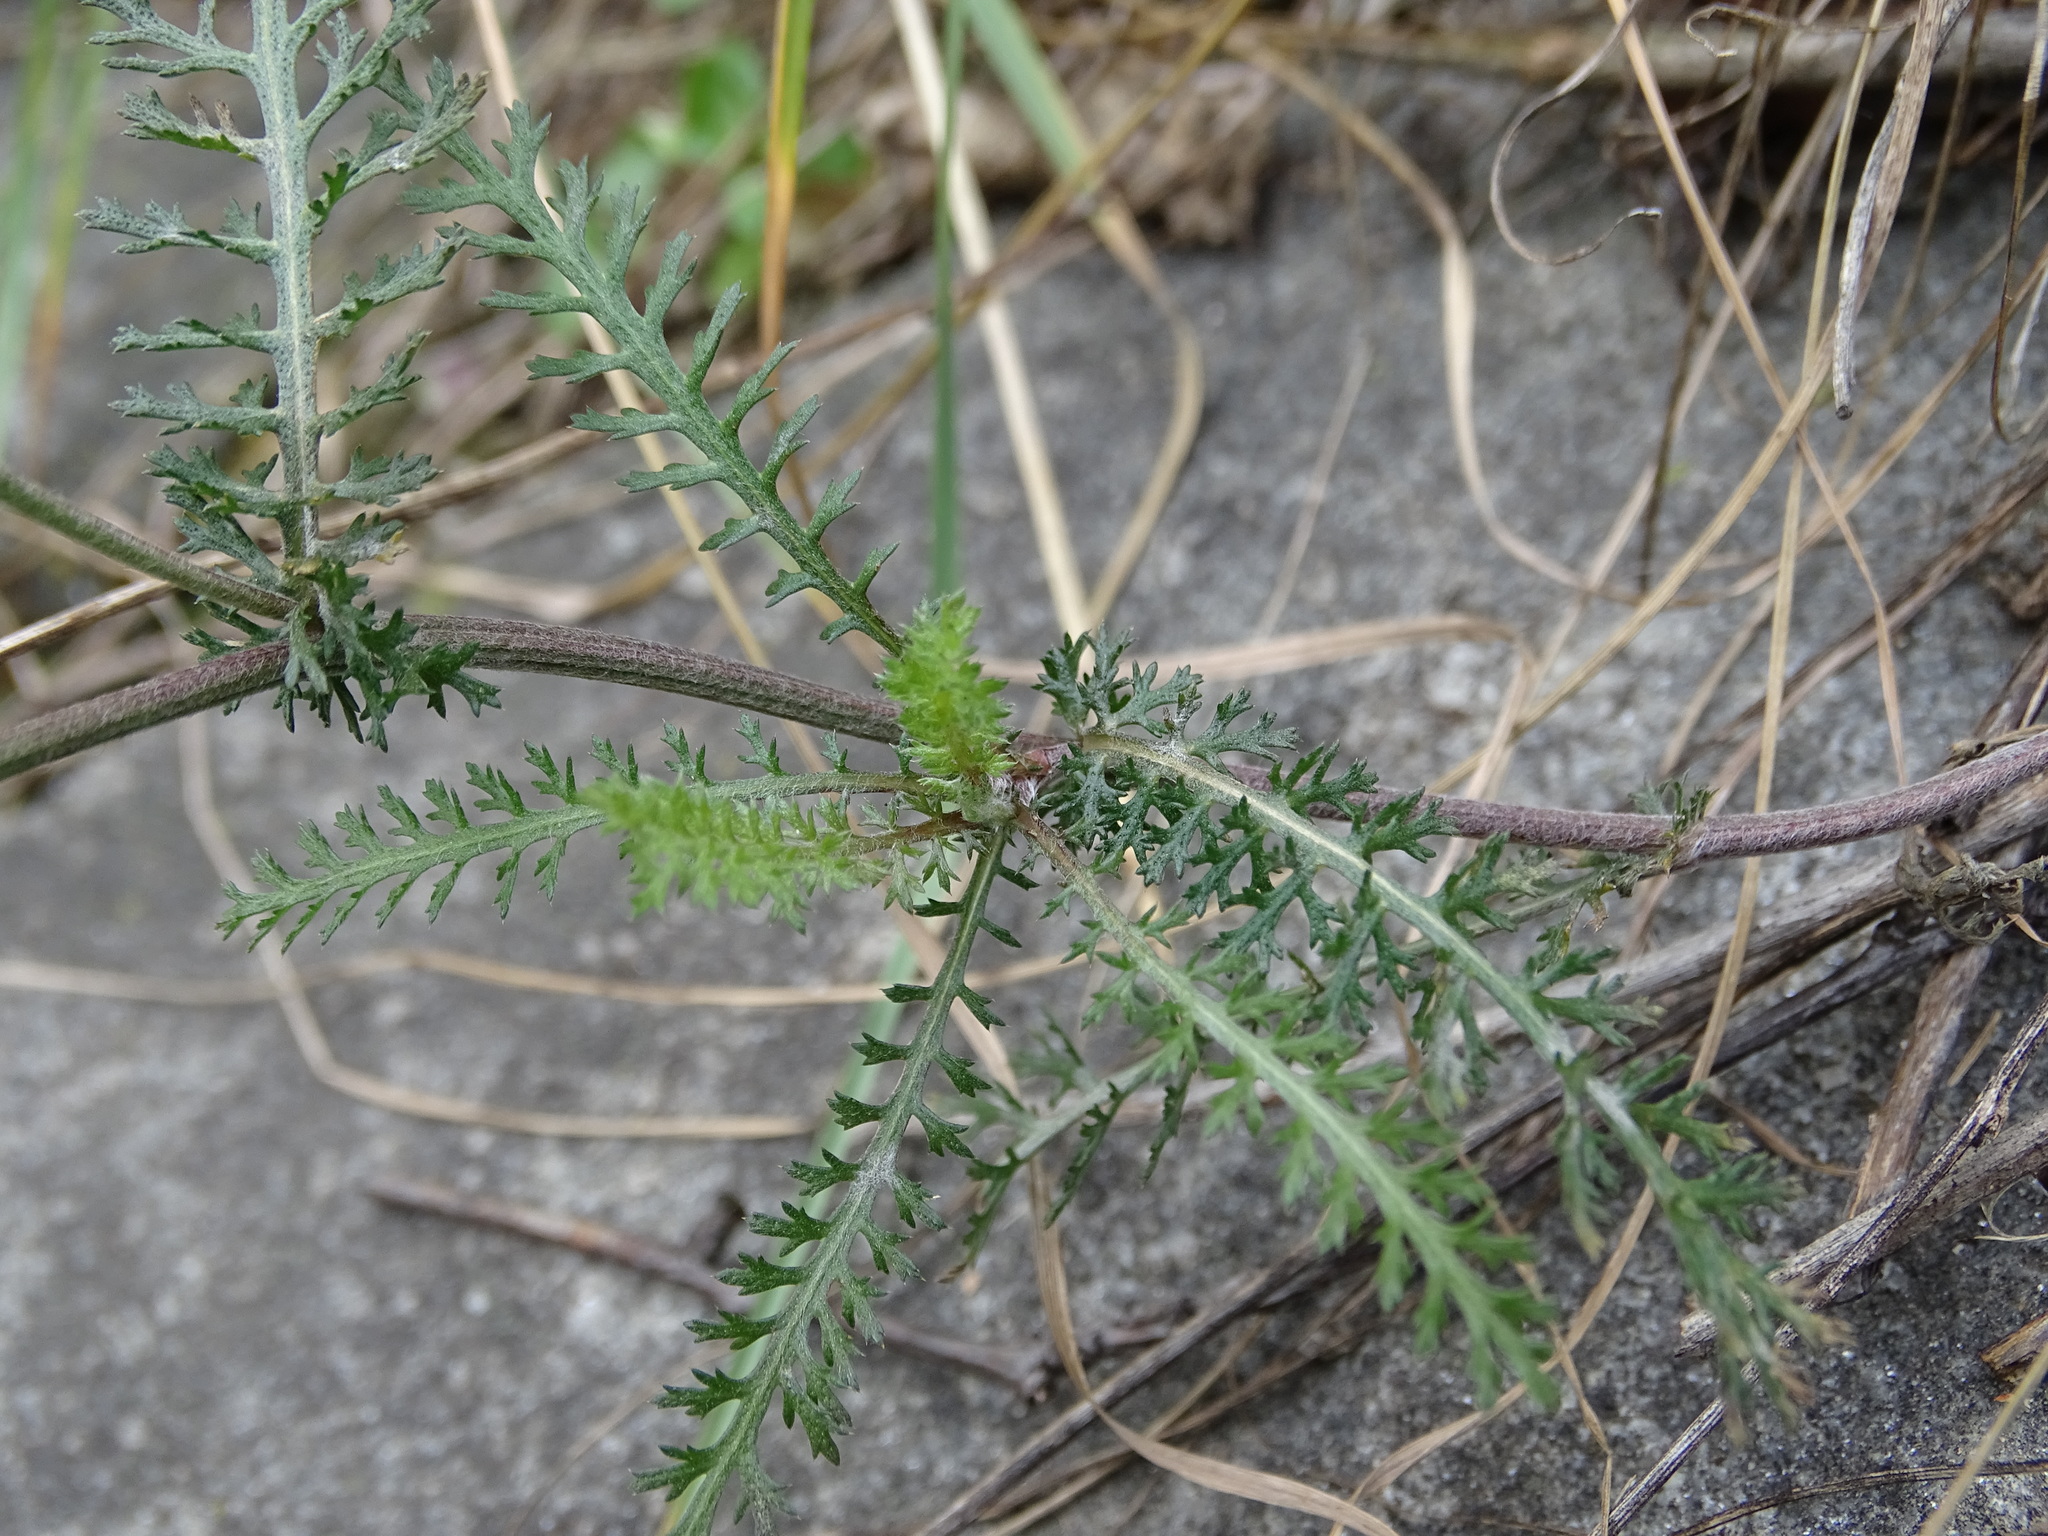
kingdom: Plantae
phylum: Tracheophyta
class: Magnoliopsida
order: Asterales
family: Asteraceae
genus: Achillea
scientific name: Achillea millefolium
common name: Yarrow
